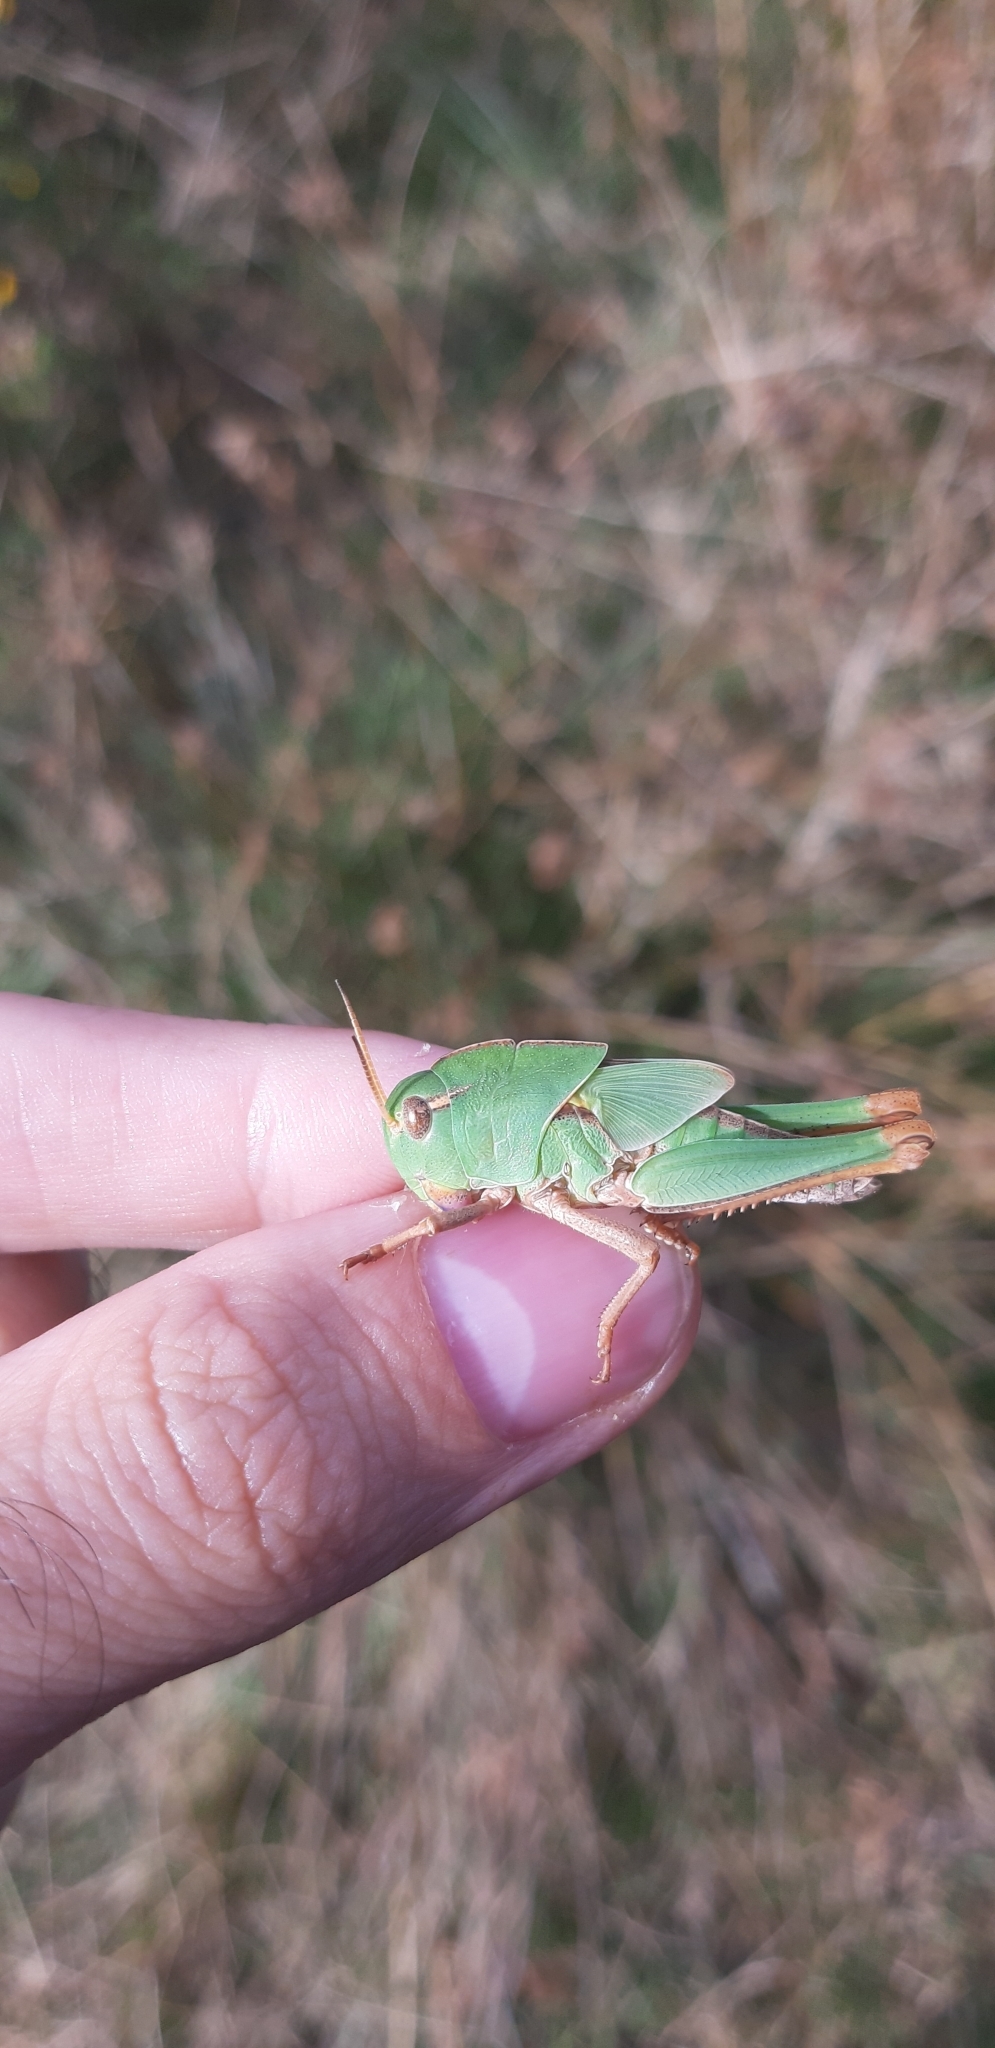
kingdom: Animalia
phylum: Arthropoda
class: Insecta
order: Orthoptera
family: Acrididae
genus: Locusta
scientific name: Locusta migratoria
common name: Migratory locust
